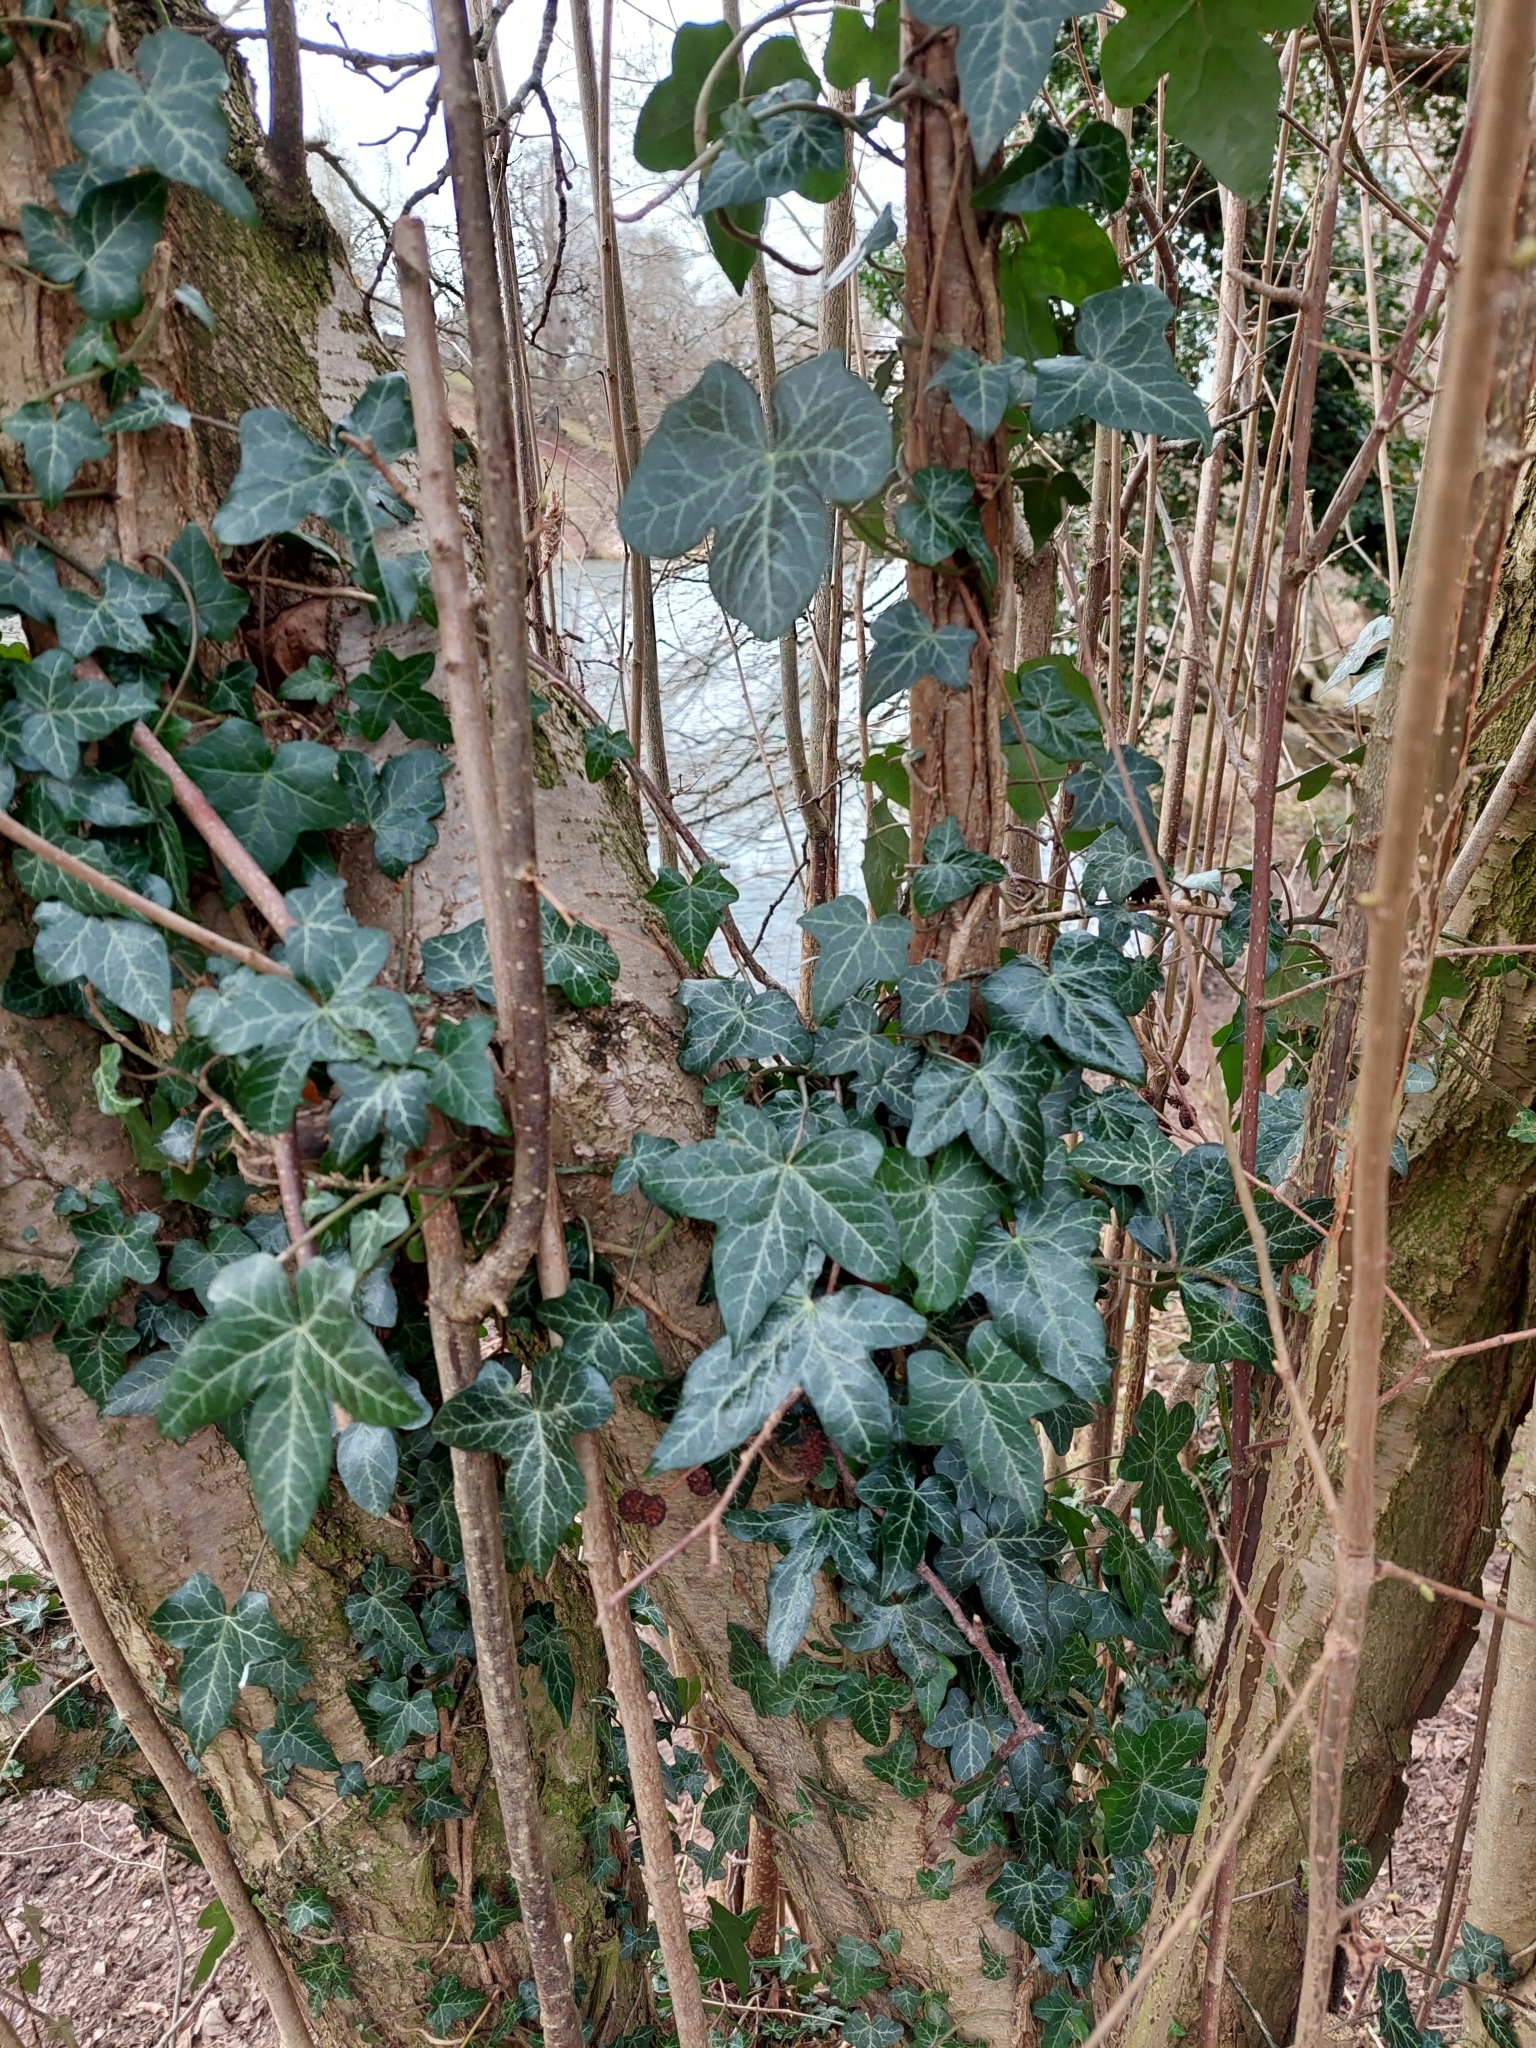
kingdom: Plantae
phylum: Tracheophyta
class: Magnoliopsida
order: Apiales
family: Araliaceae
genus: Hedera
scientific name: Hedera helix
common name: Ivy
